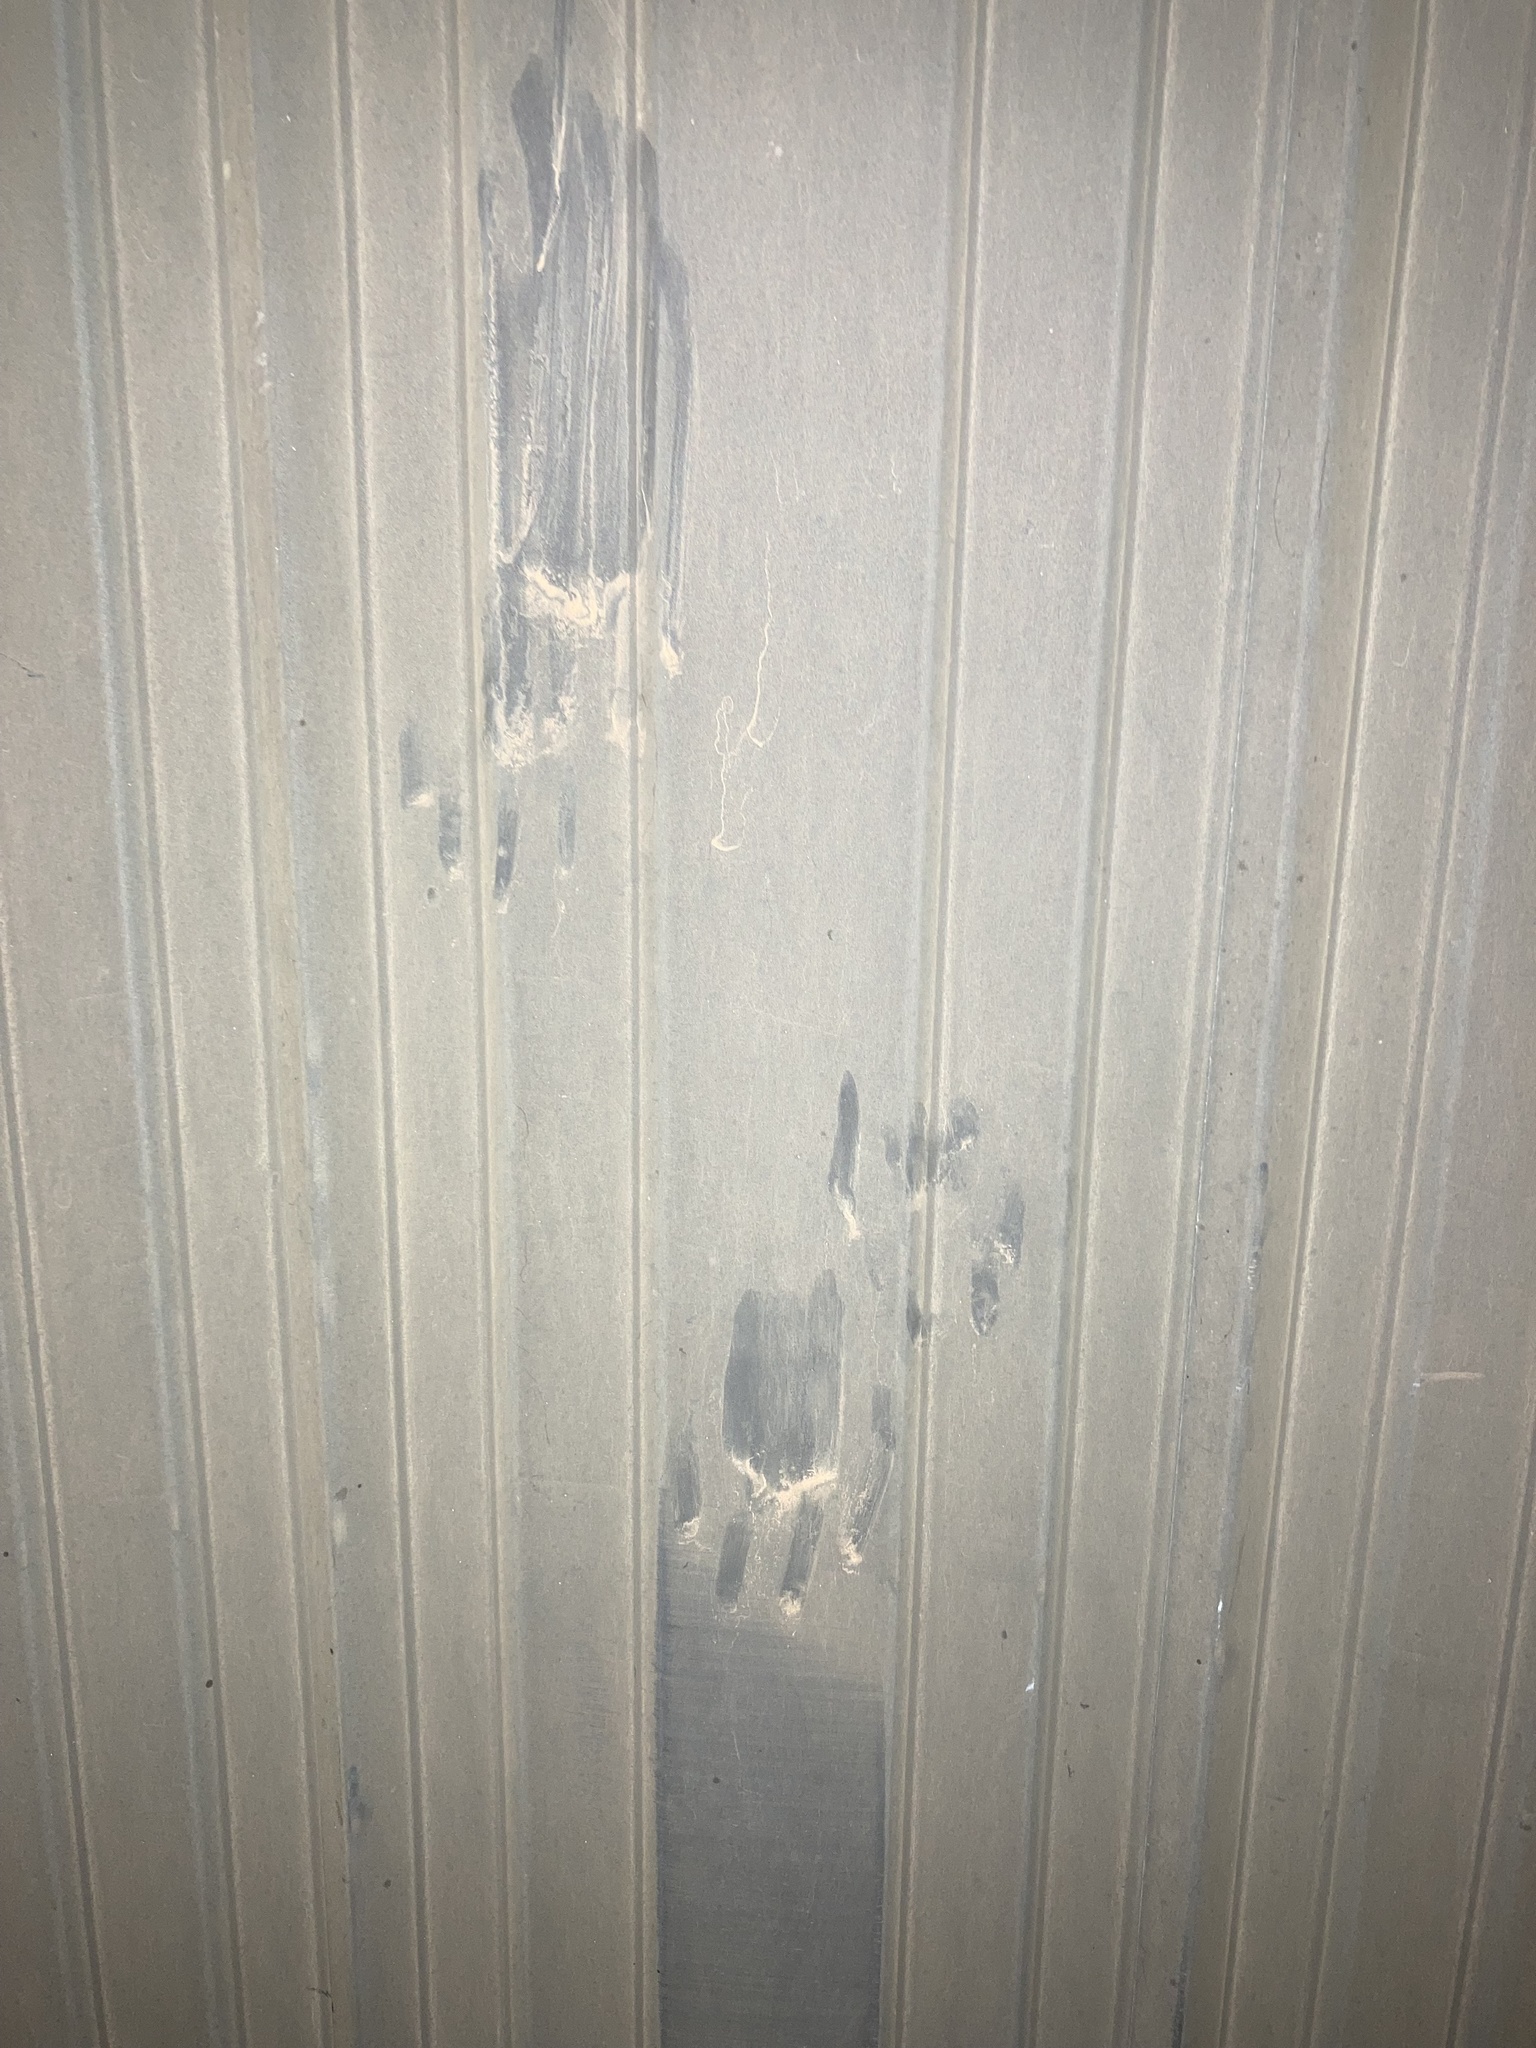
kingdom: Animalia
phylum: Chordata
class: Mammalia
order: Carnivora
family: Felidae
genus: Felis
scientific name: Felis catus
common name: Domestic cat
